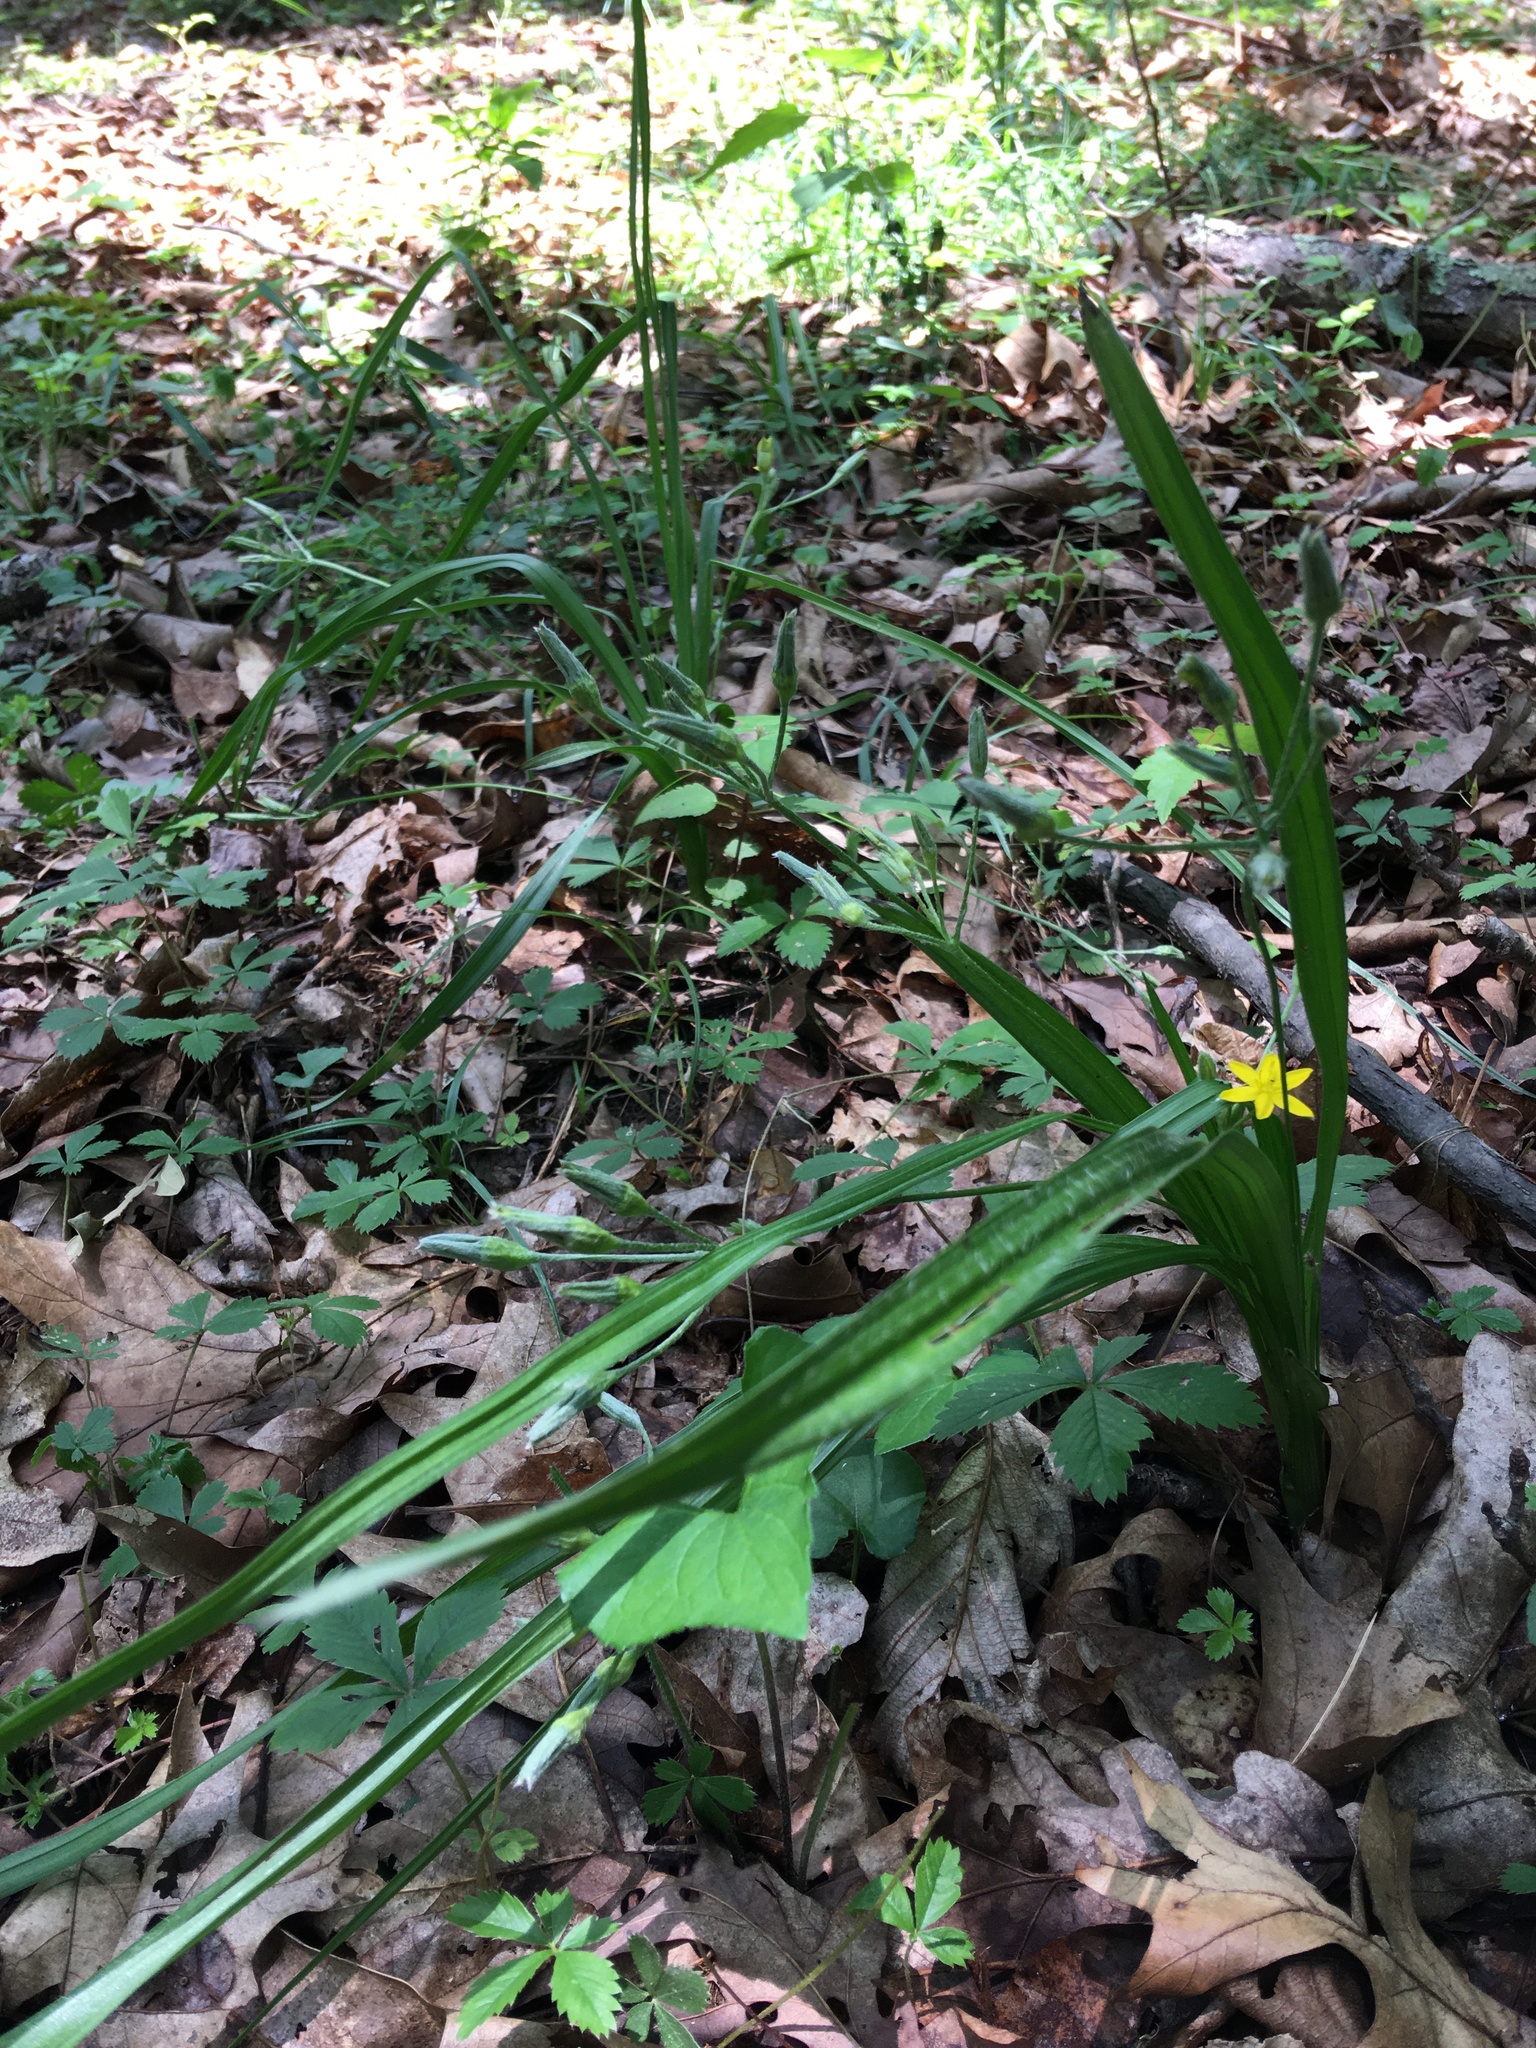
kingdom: Plantae
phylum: Tracheophyta
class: Liliopsida
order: Asparagales
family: Hypoxidaceae
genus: Hypoxis
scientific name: Hypoxis hirsuta
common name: Common goldstar
